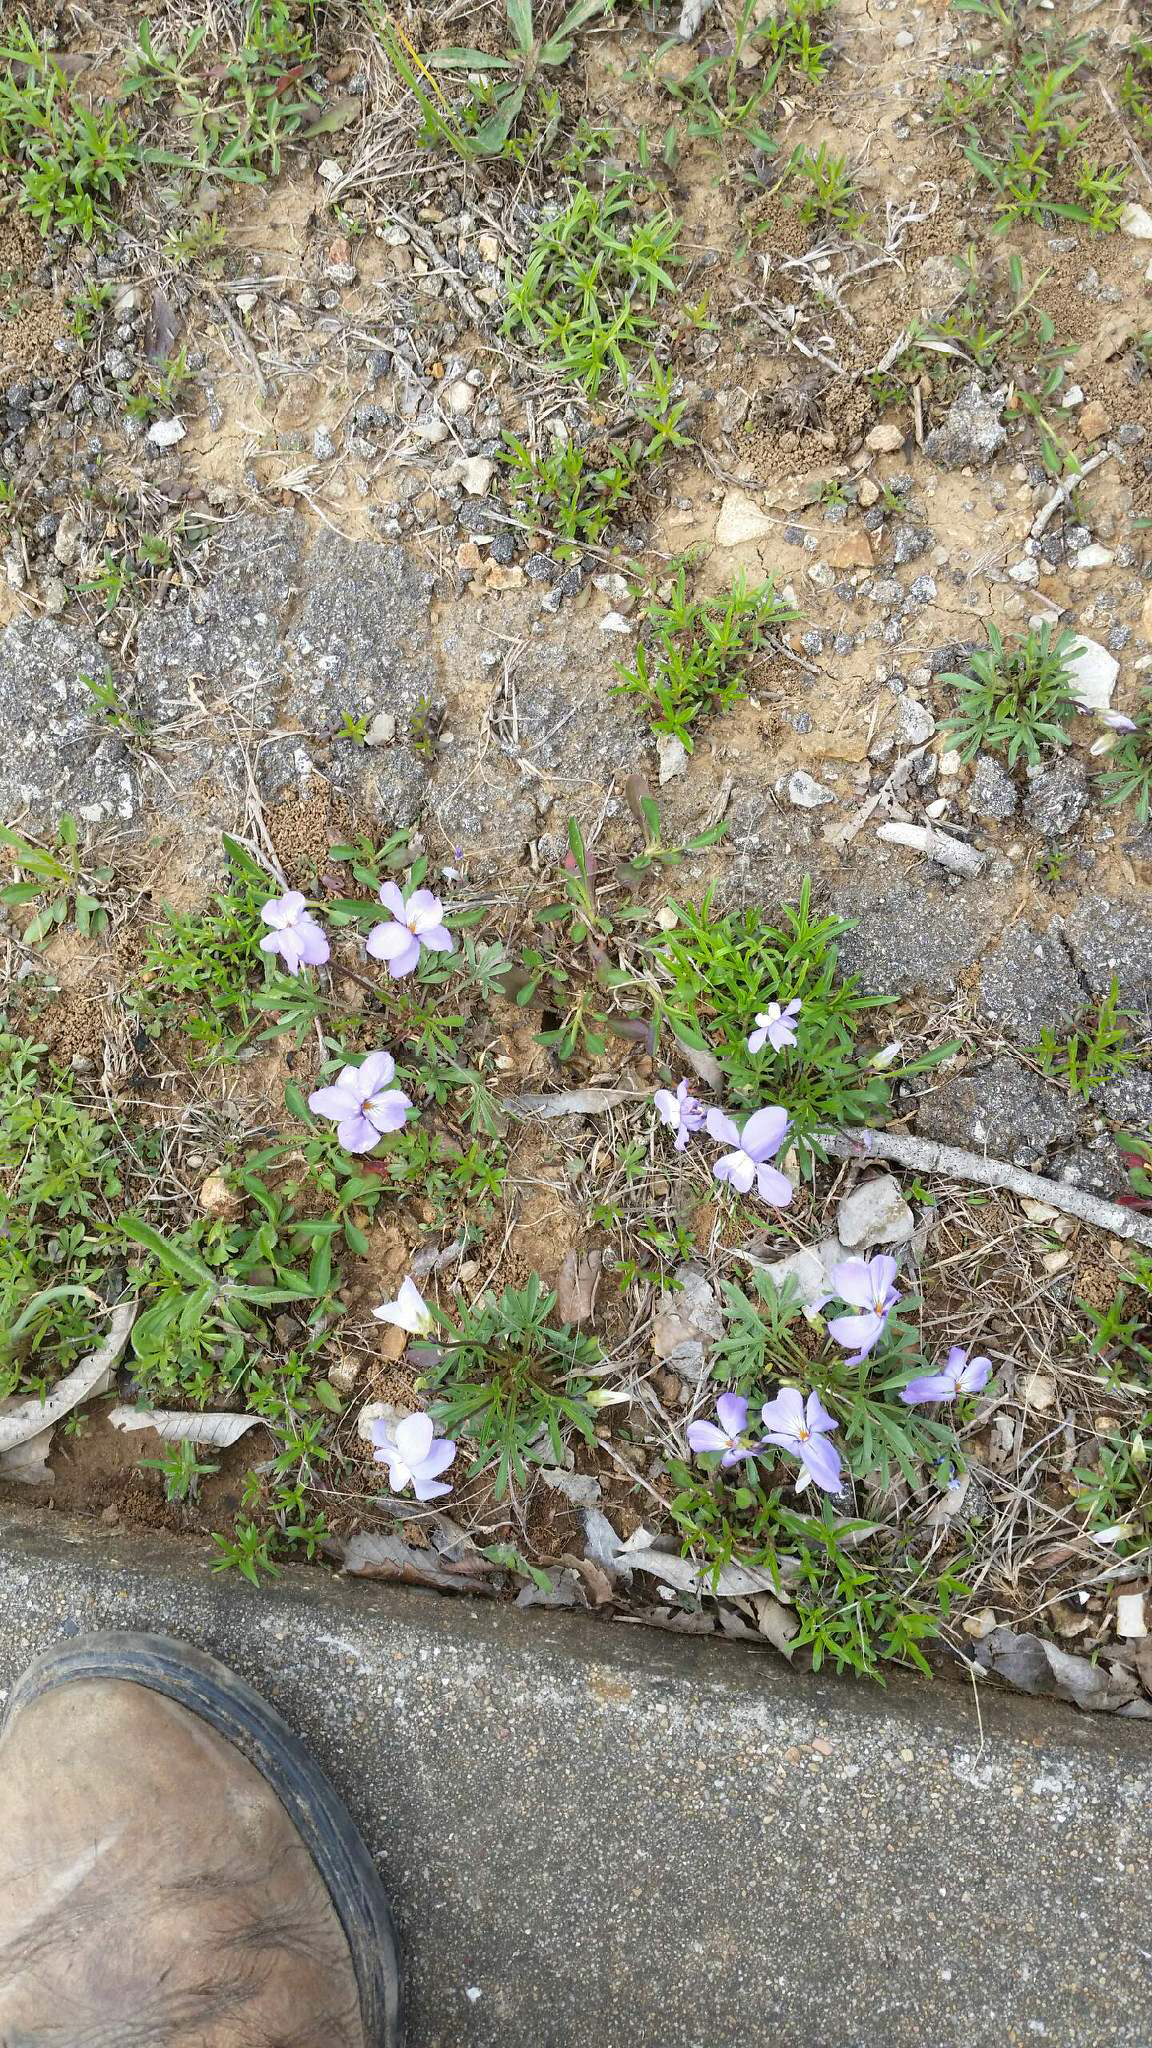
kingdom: Plantae
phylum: Tracheophyta
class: Magnoliopsida
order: Malpighiales
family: Violaceae
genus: Viola
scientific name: Viola pedata
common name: Pansy violet
